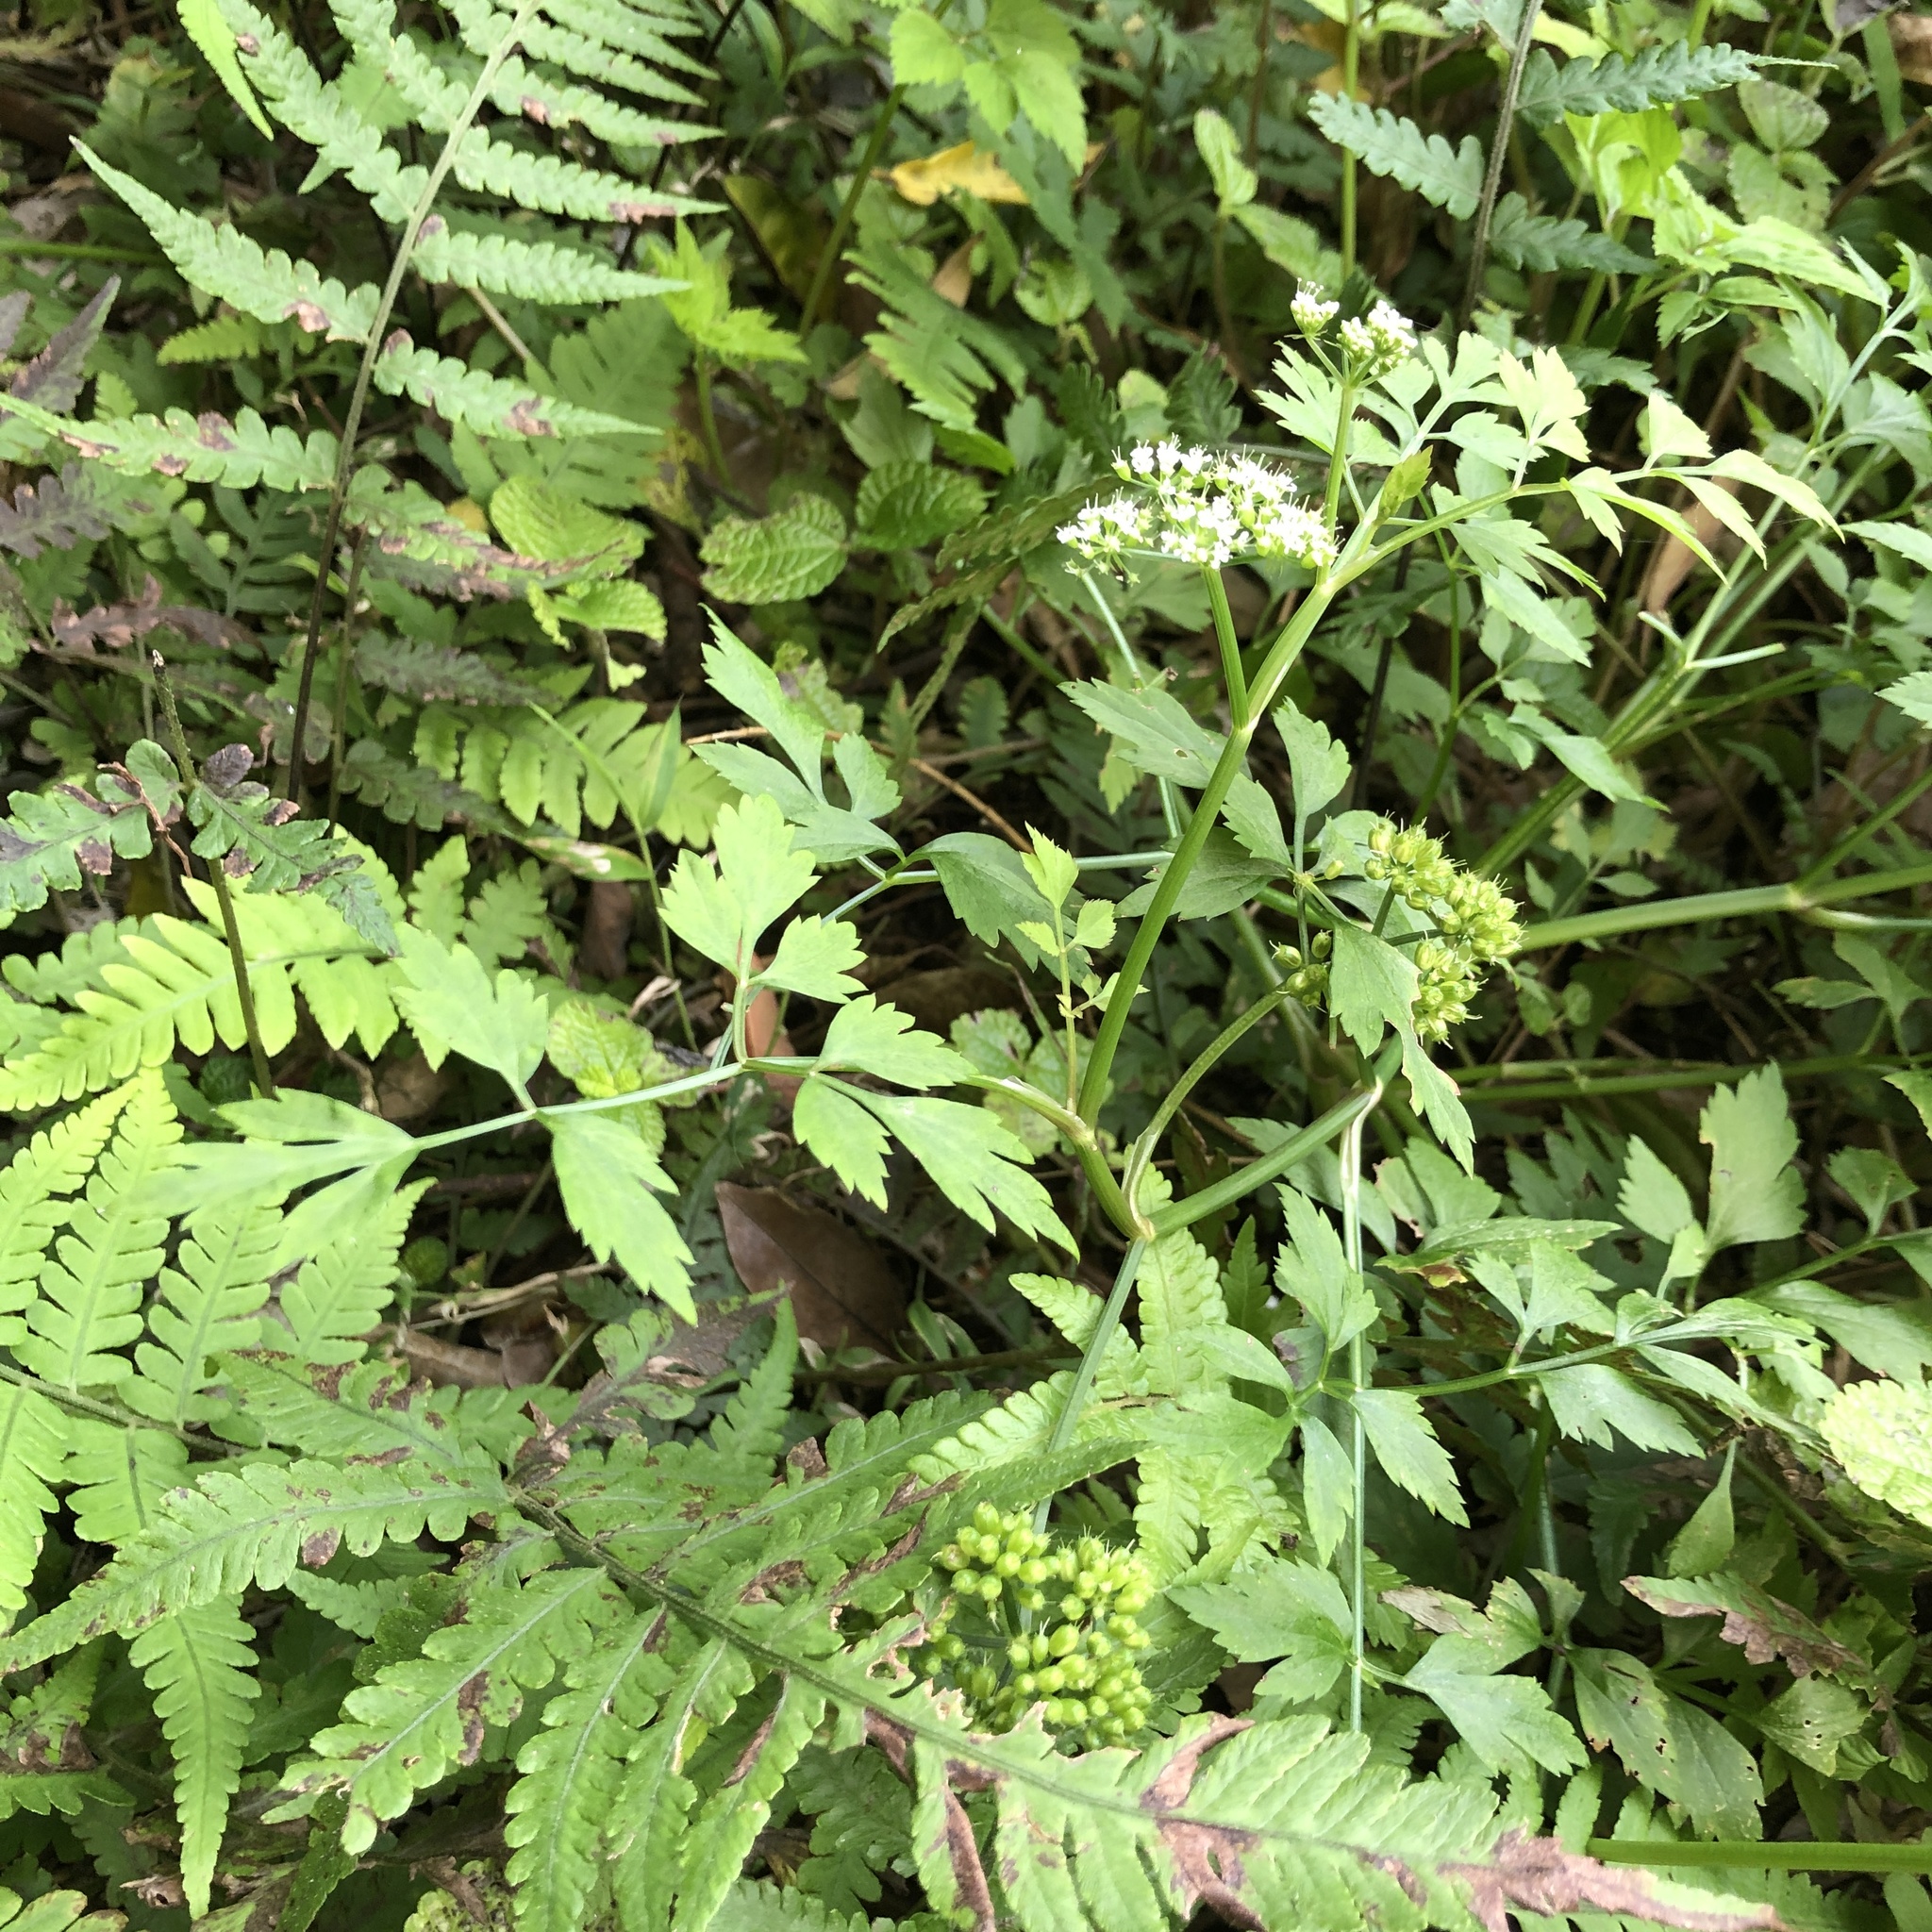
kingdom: Plantae
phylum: Tracheophyta
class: Magnoliopsida
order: Apiales
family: Apiaceae
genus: Oenanthe
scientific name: Oenanthe javanica
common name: Java water-dropwort
